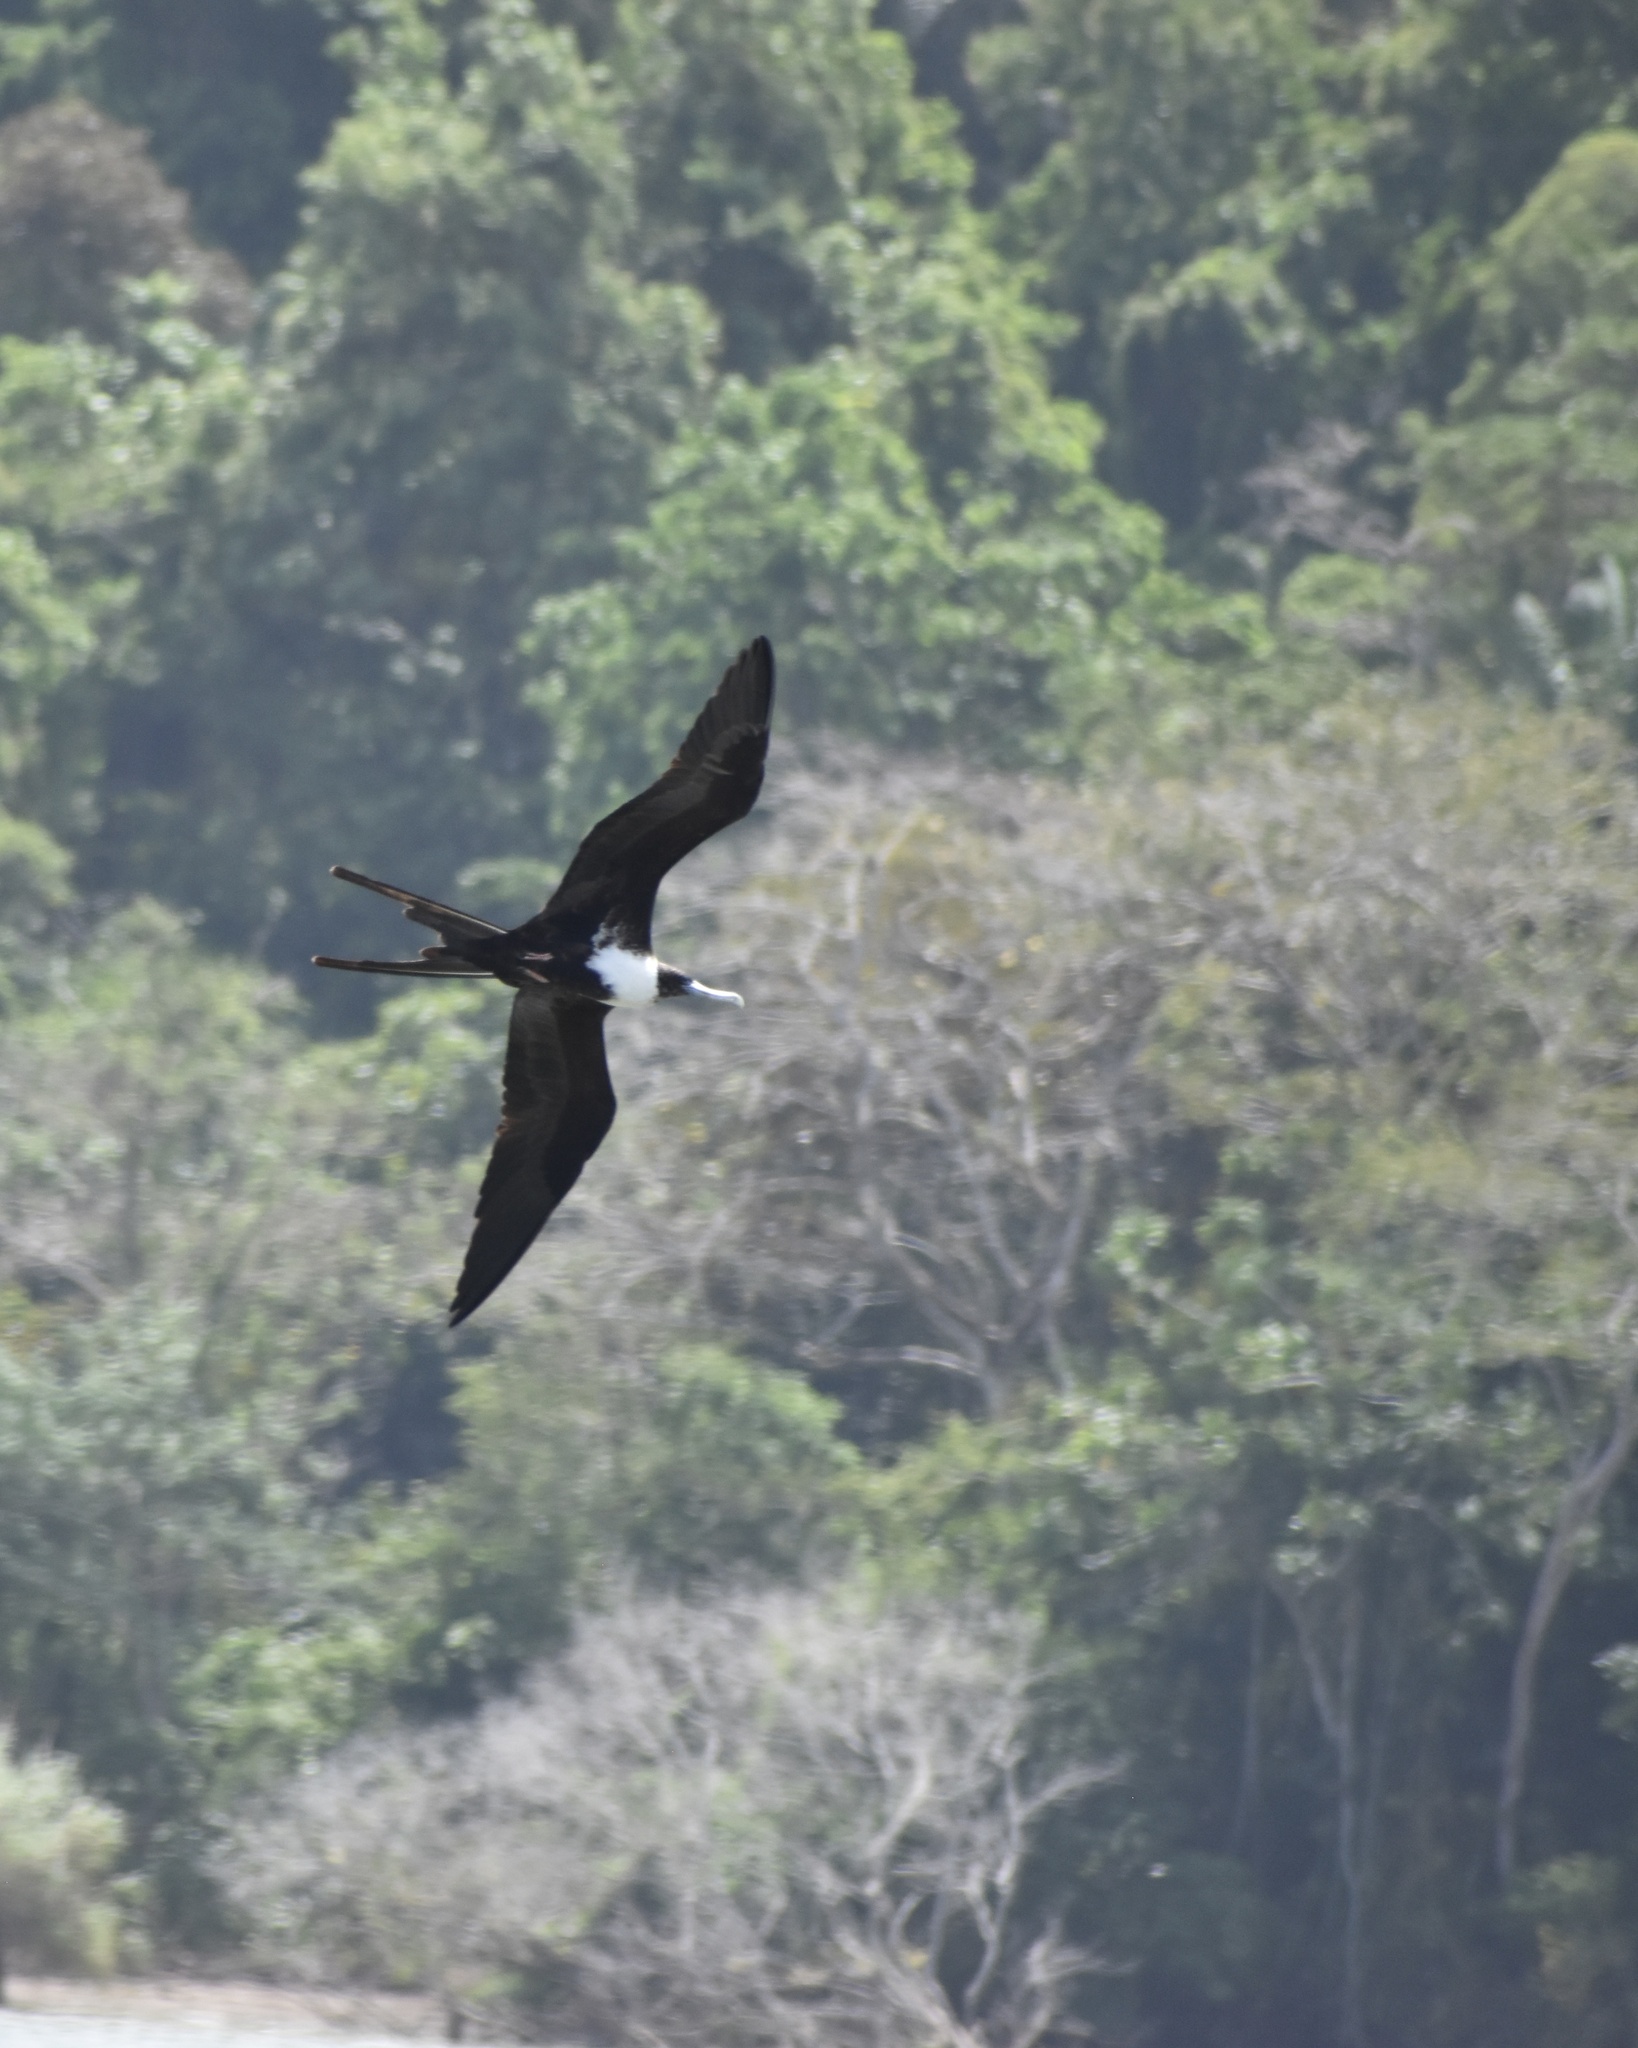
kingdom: Animalia
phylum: Chordata
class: Aves
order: Suliformes
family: Fregatidae
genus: Fregata
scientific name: Fregata magnificens
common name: Magnificent frigatebird
